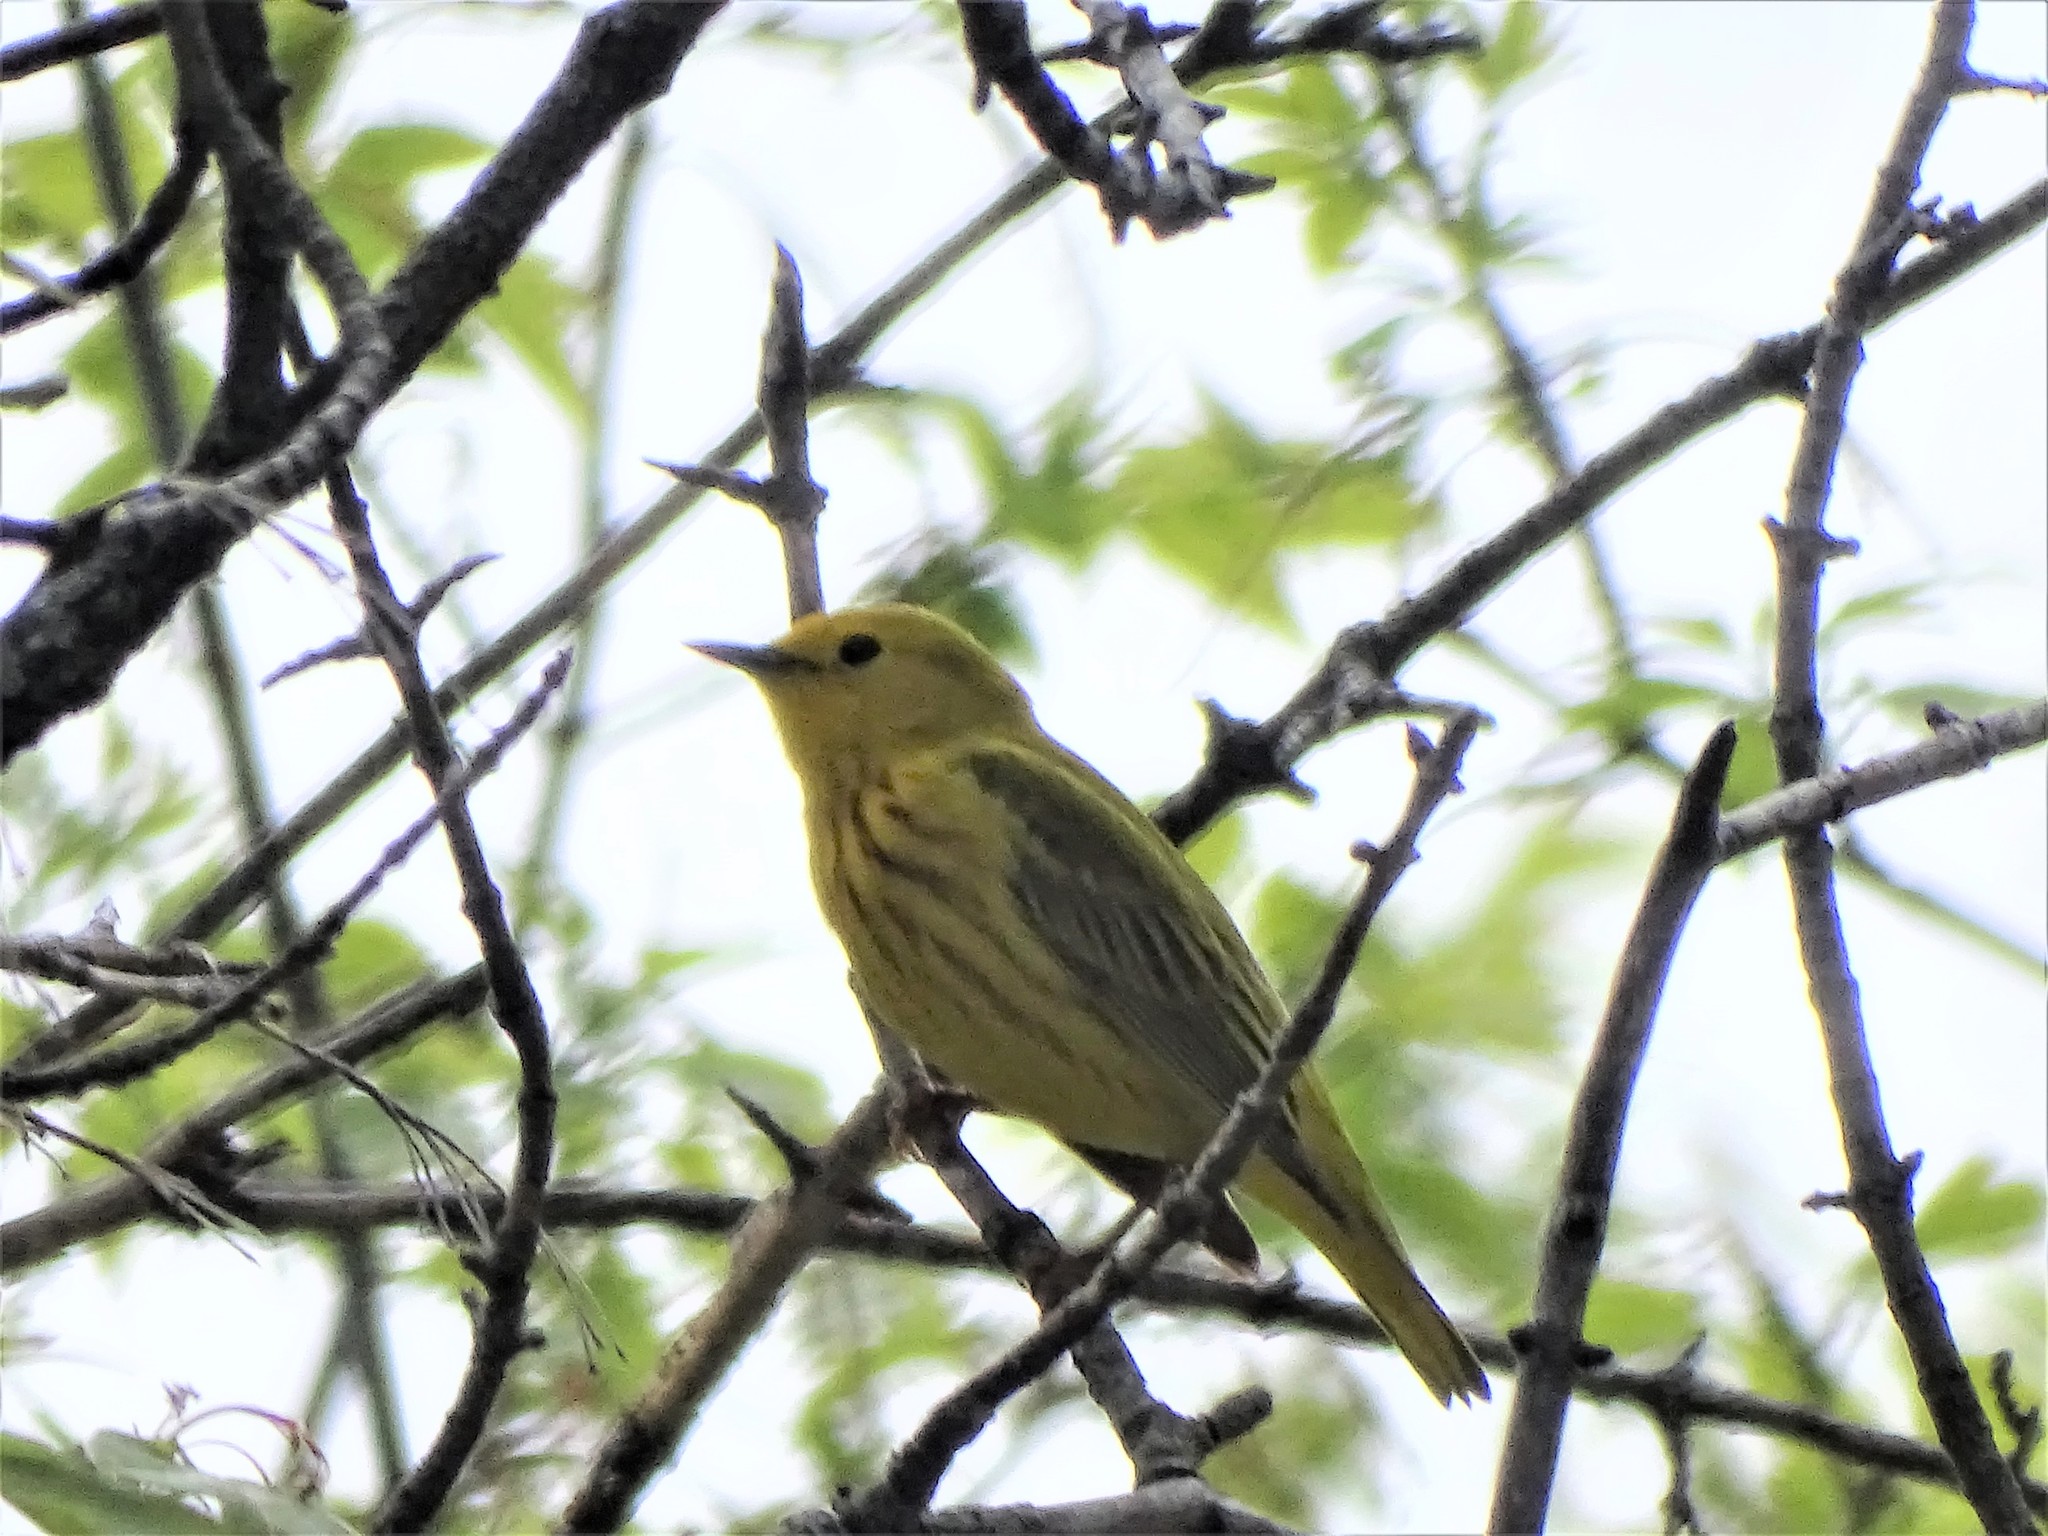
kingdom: Animalia
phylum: Chordata
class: Aves
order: Passeriformes
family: Parulidae
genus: Setophaga
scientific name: Setophaga petechia
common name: Yellow warbler
